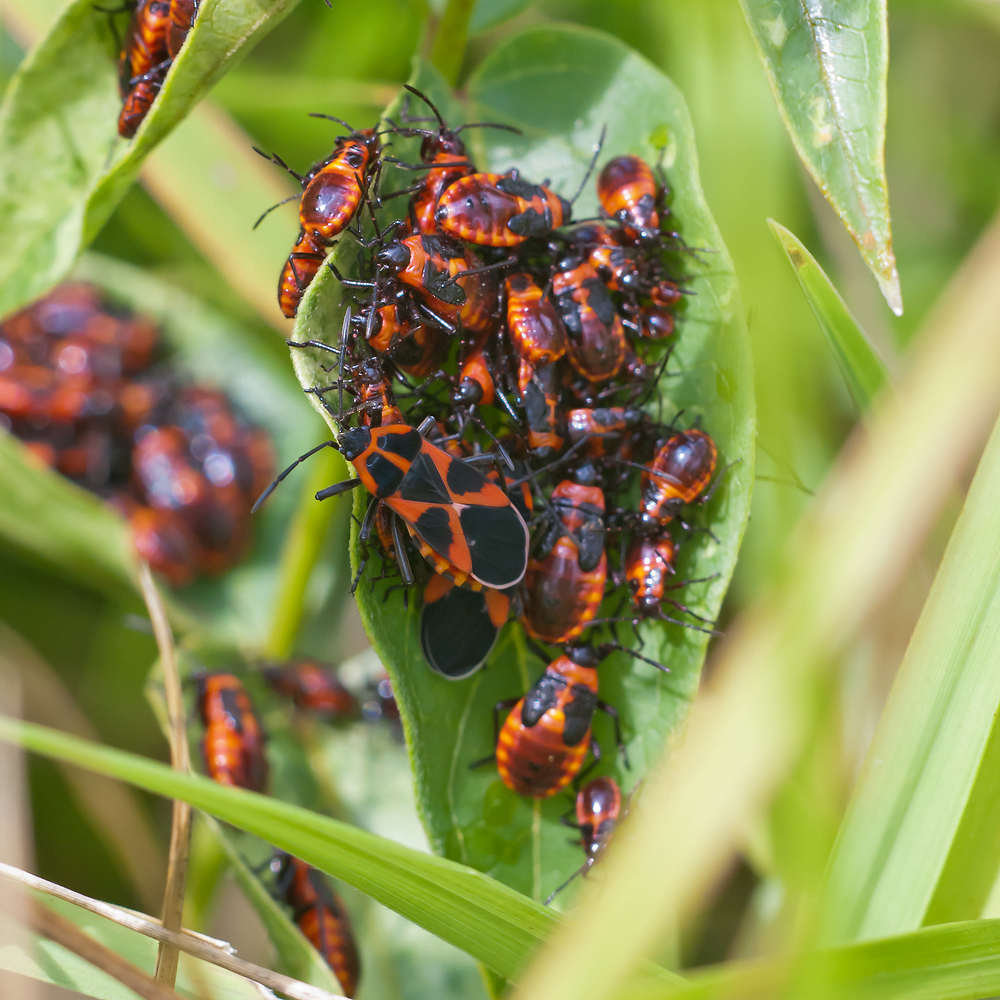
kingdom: Animalia
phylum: Arthropoda
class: Insecta
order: Hemiptera
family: Lygaeidae
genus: Tropidothorax
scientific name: Tropidothorax leucopterus
